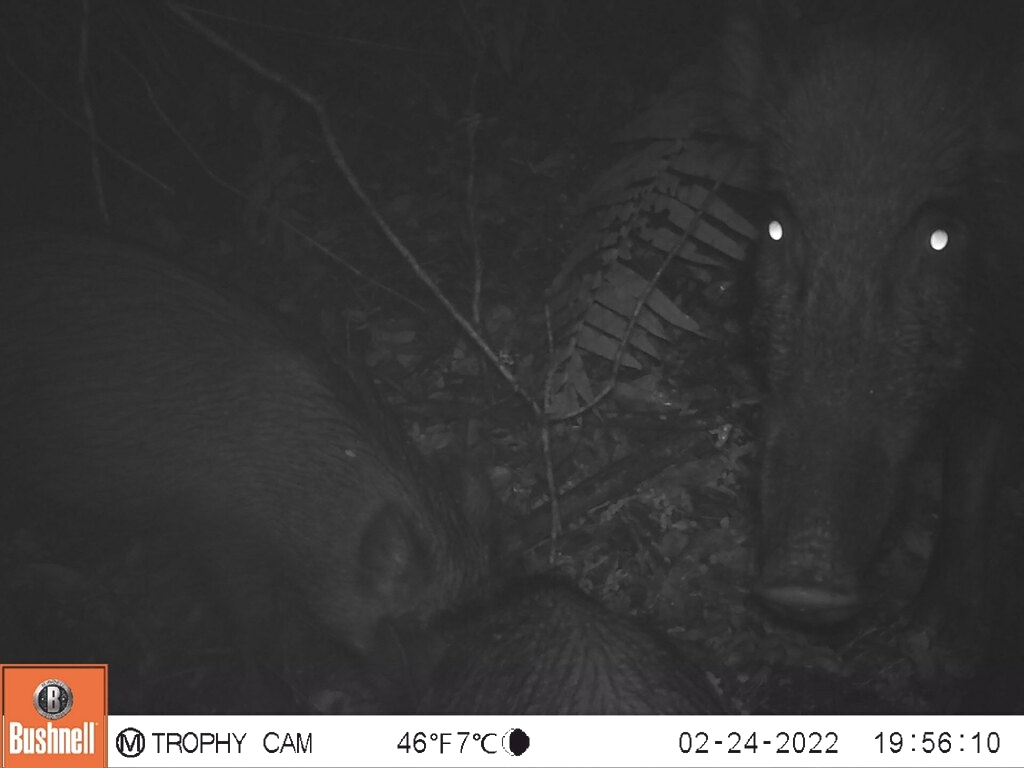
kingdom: Animalia
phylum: Chordata
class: Mammalia
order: Artiodactyla
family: Suidae
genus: Sus
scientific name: Sus scrofa
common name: Wild boar
